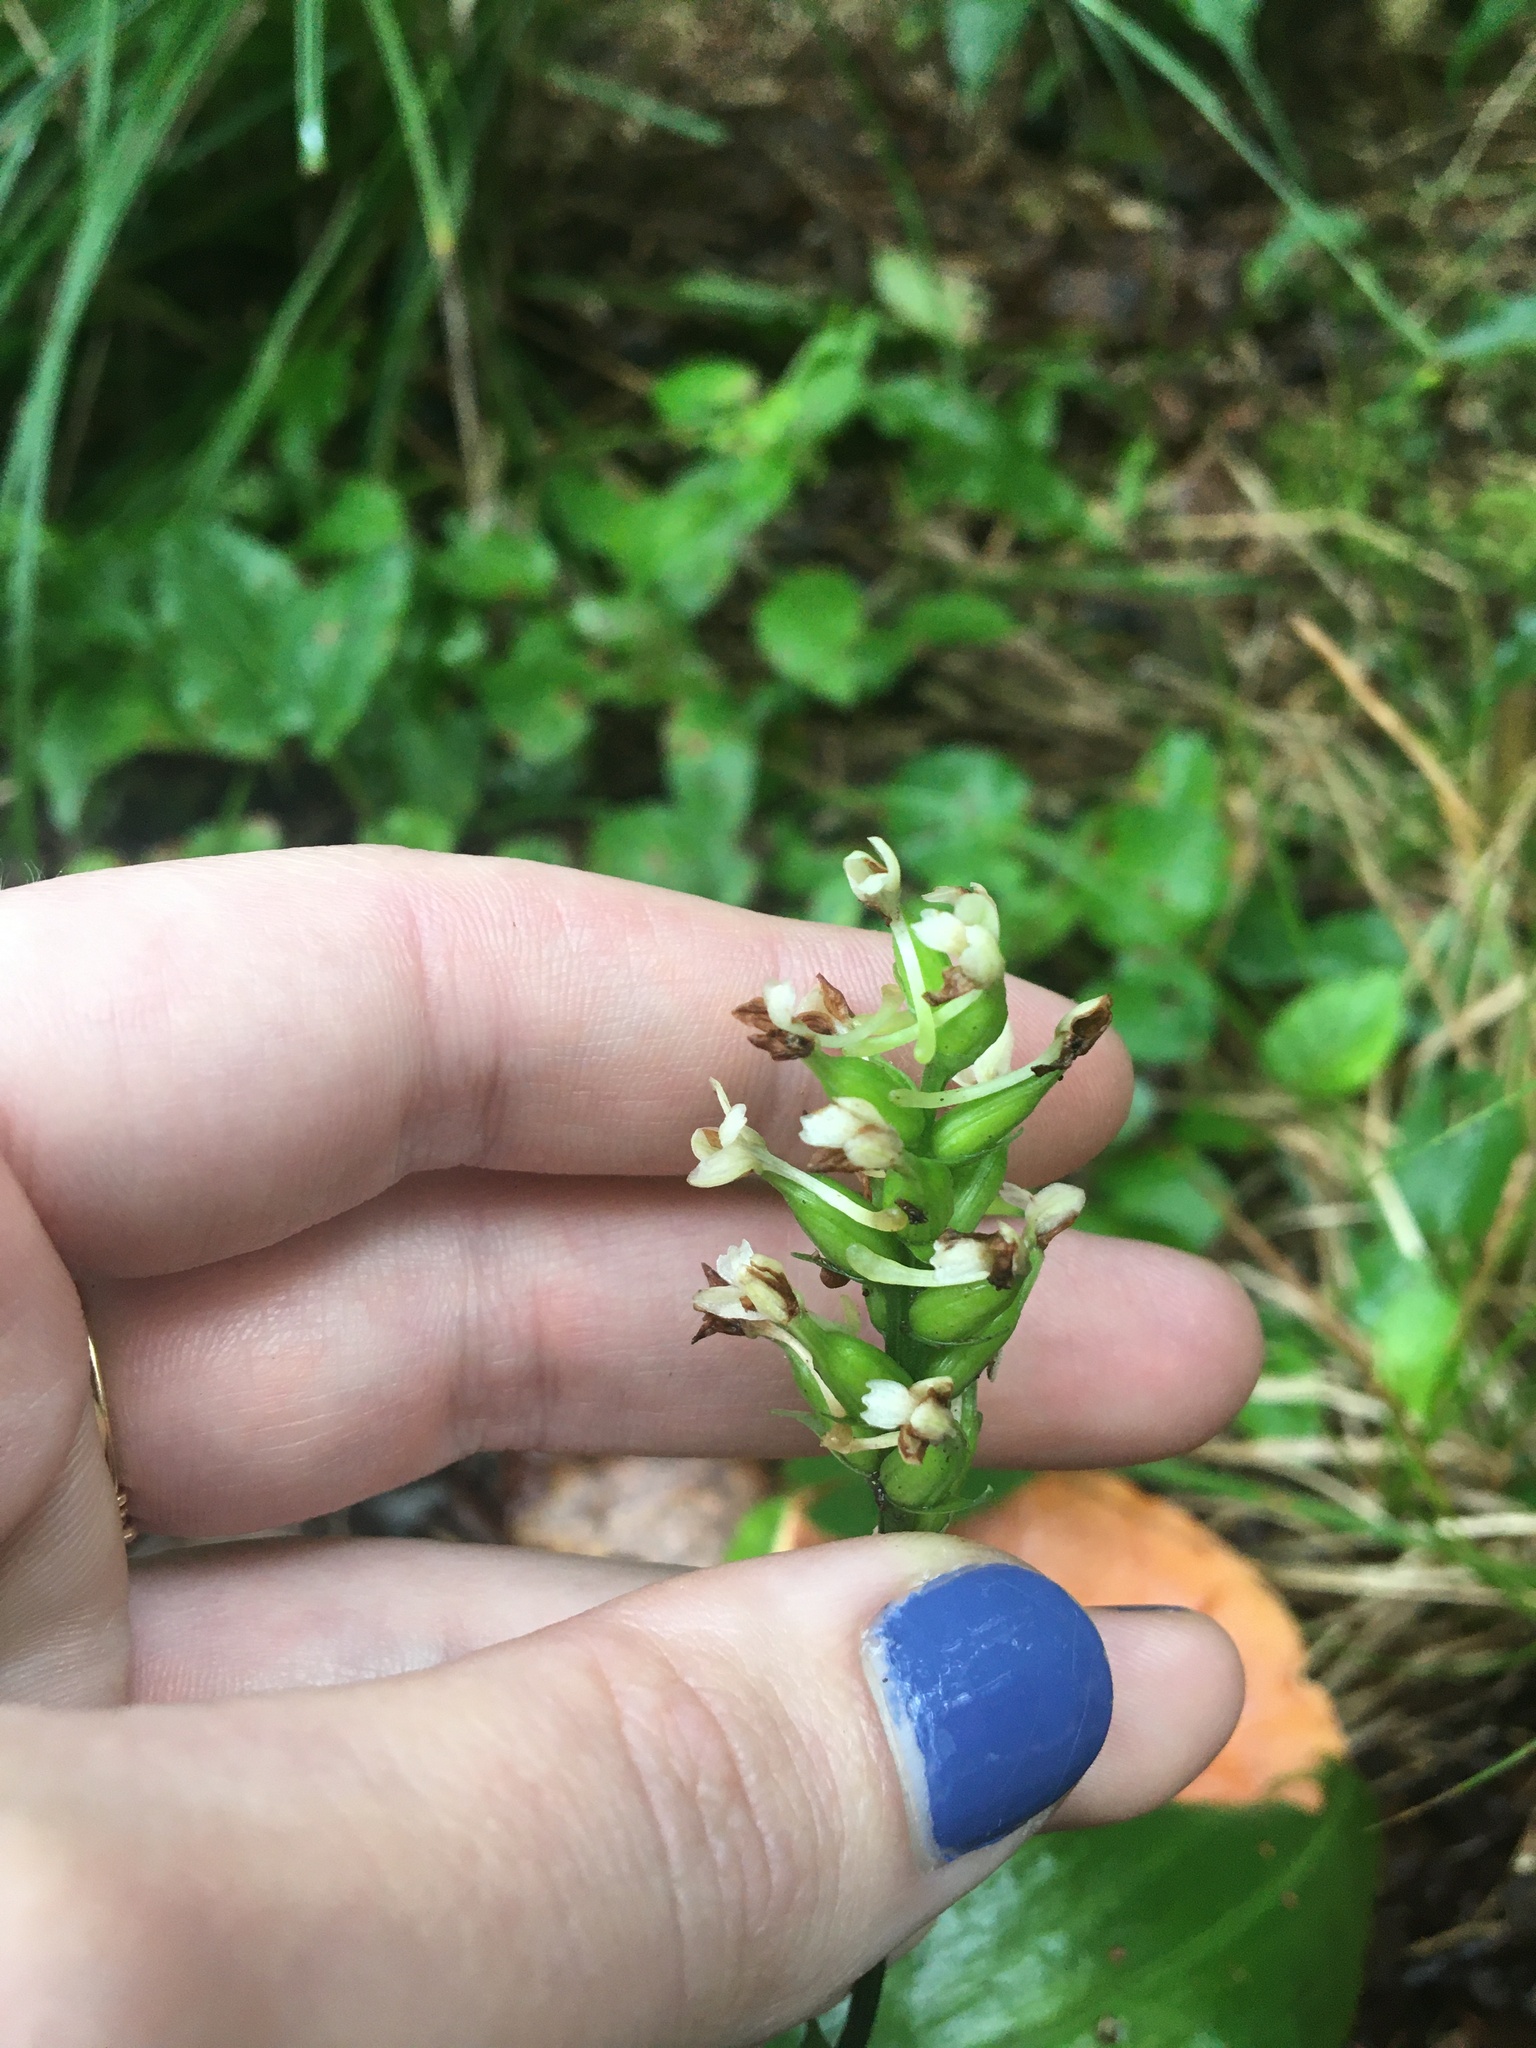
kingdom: Plantae
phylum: Tracheophyta
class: Liliopsida
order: Asparagales
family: Orchidaceae
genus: Platanthera
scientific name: Platanthera clavellata
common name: Club-spur orchid
